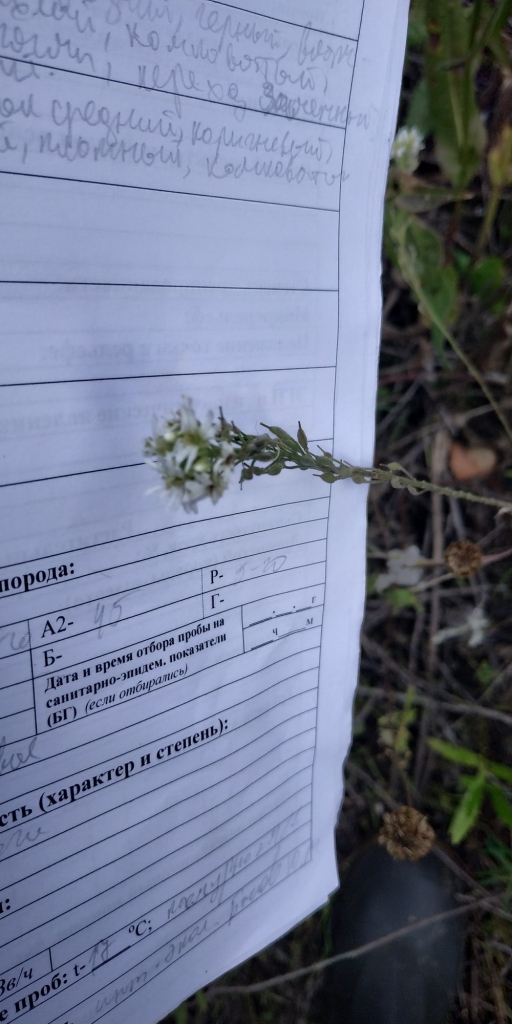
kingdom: Plantae
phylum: Tracheophyta
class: Magnoliopsida
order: Brassicales
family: Brassicaceae
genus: Berteroa
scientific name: Berteroa incana
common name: Hoary alison
